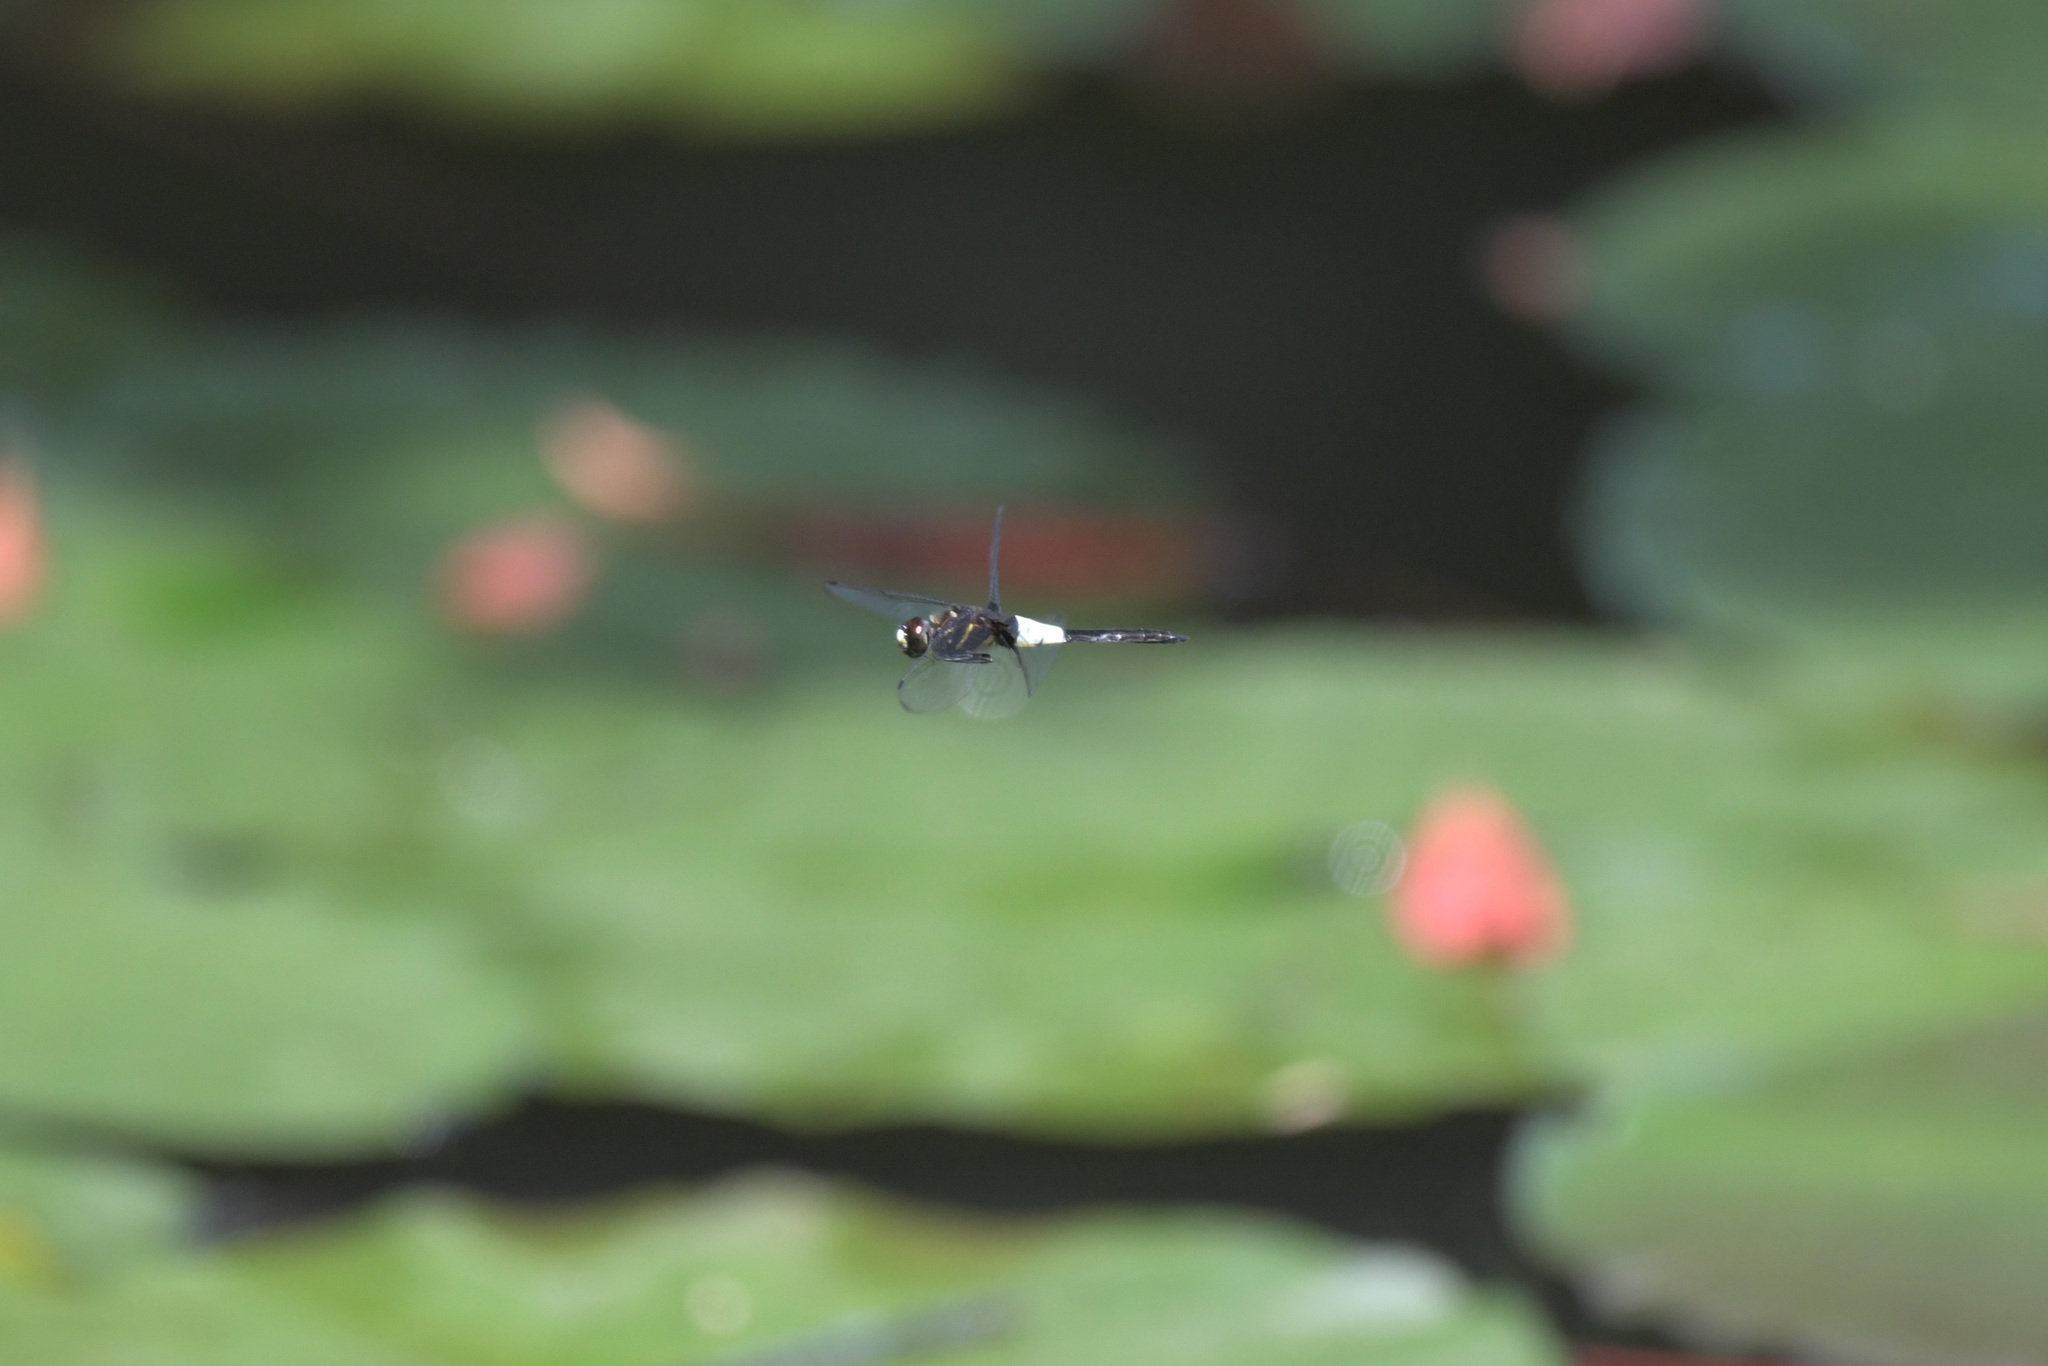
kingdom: Animalia
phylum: Arthropoda
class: Insecta
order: Odonata
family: Libellulidae
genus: Pseudothemis
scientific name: Pseudothemis zonata
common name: Pied skimmer
